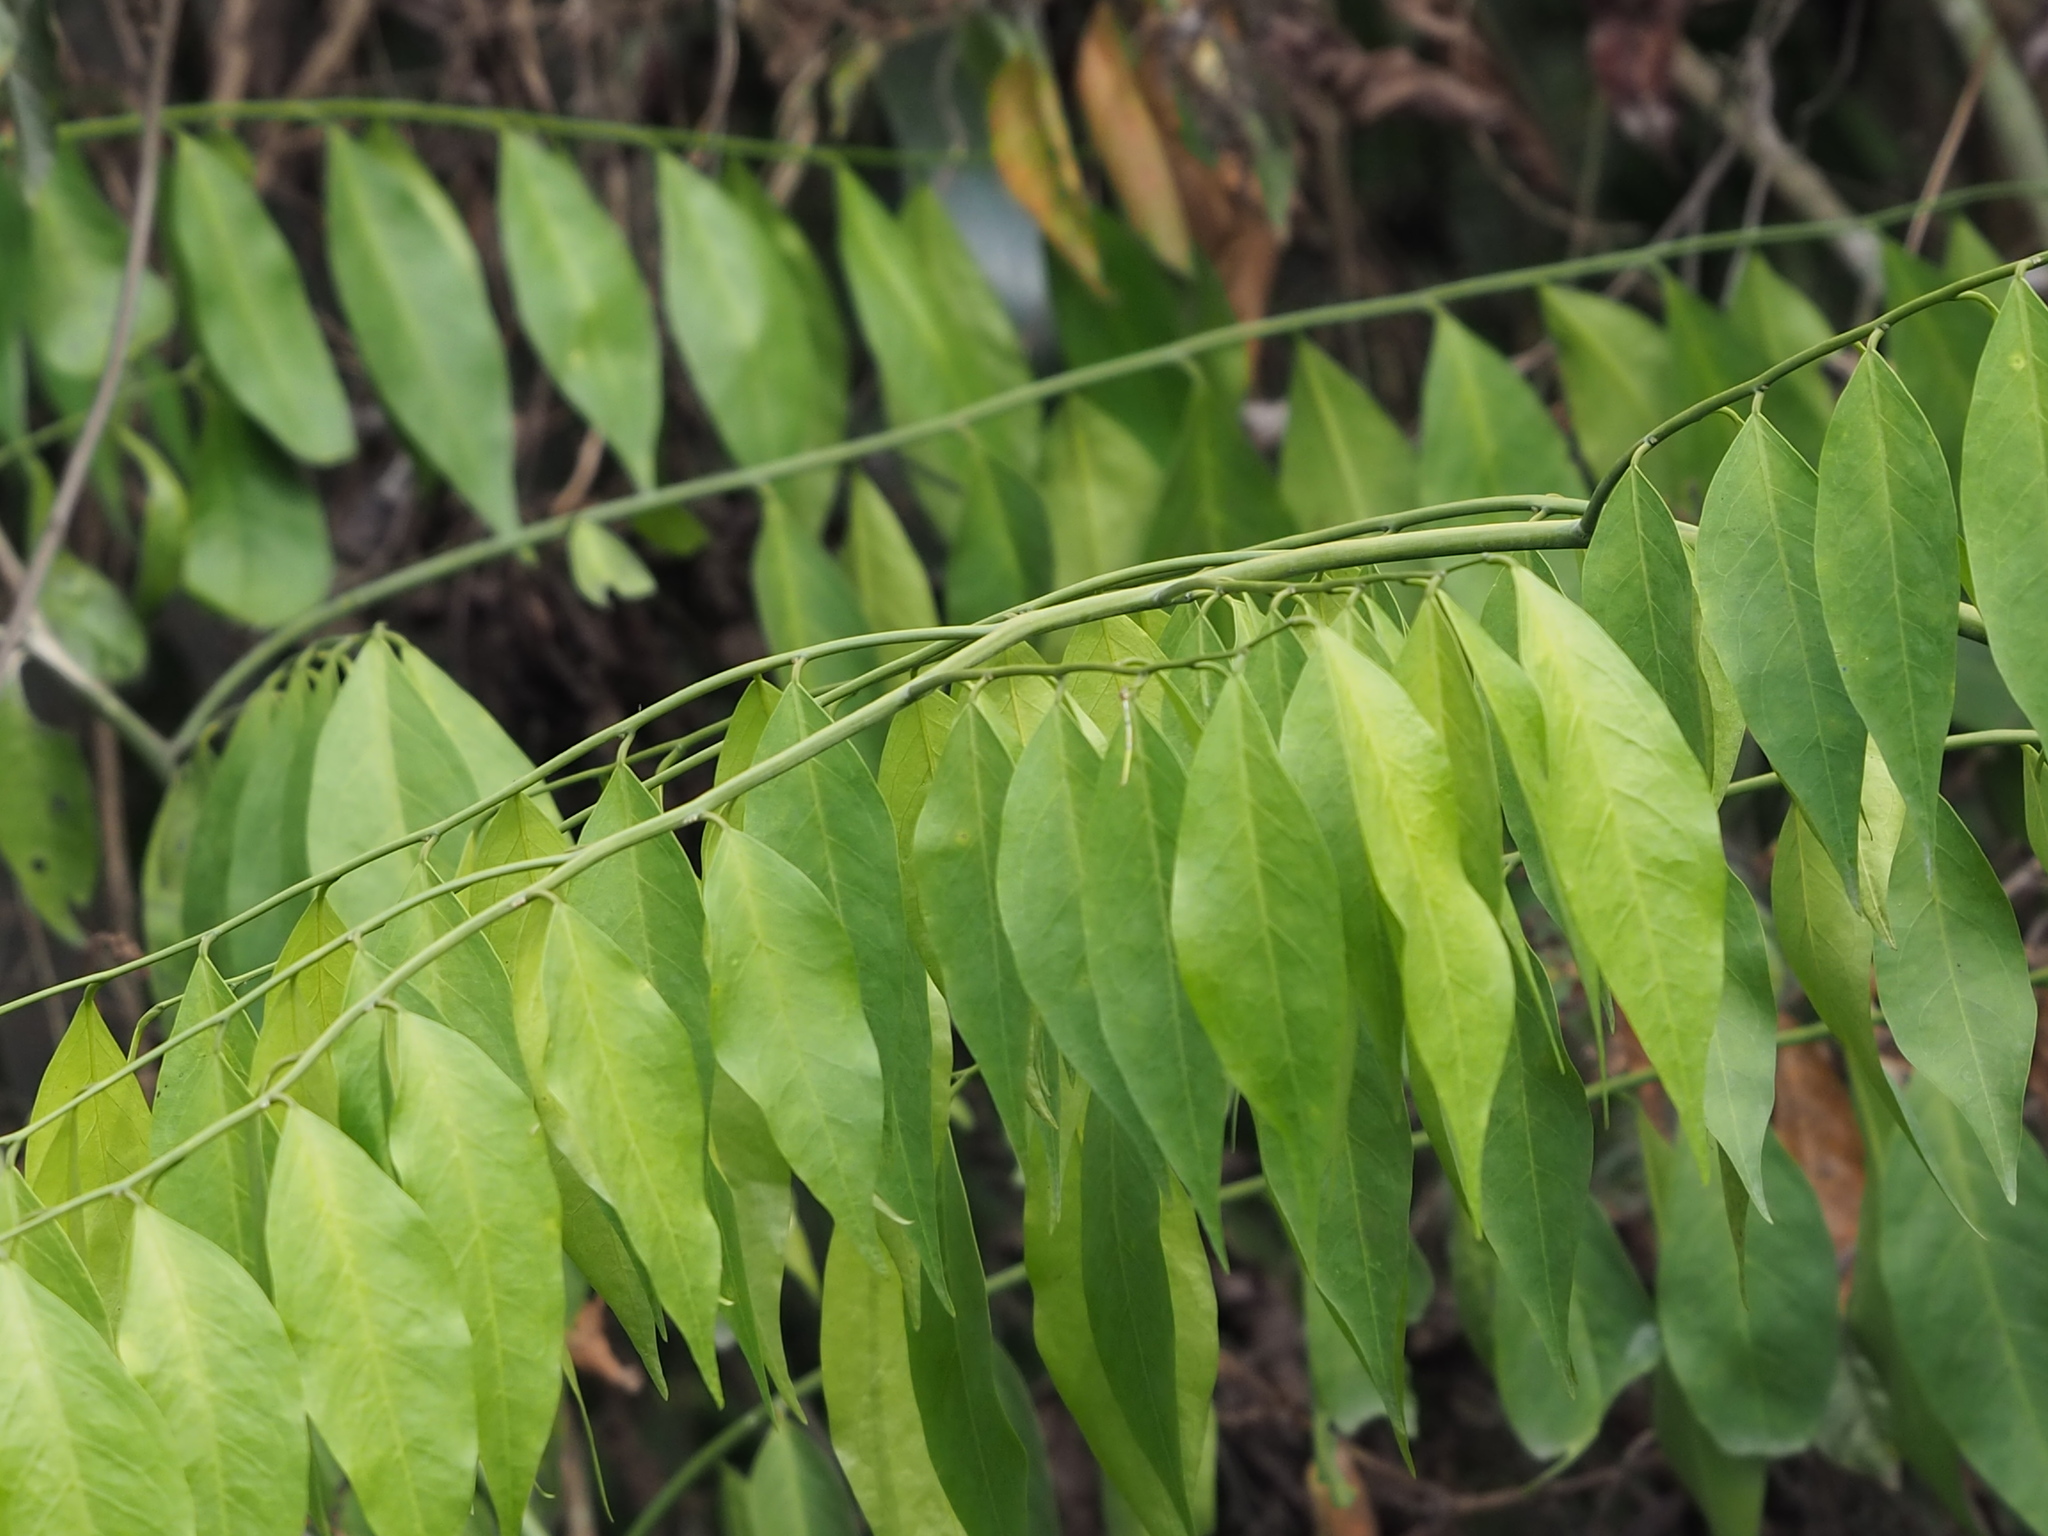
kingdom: Plantae
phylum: Tracheophyta
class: Magnoliopsida
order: Brassicales
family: Capparaceae
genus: Capparis
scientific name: Capparis sabiifolia
